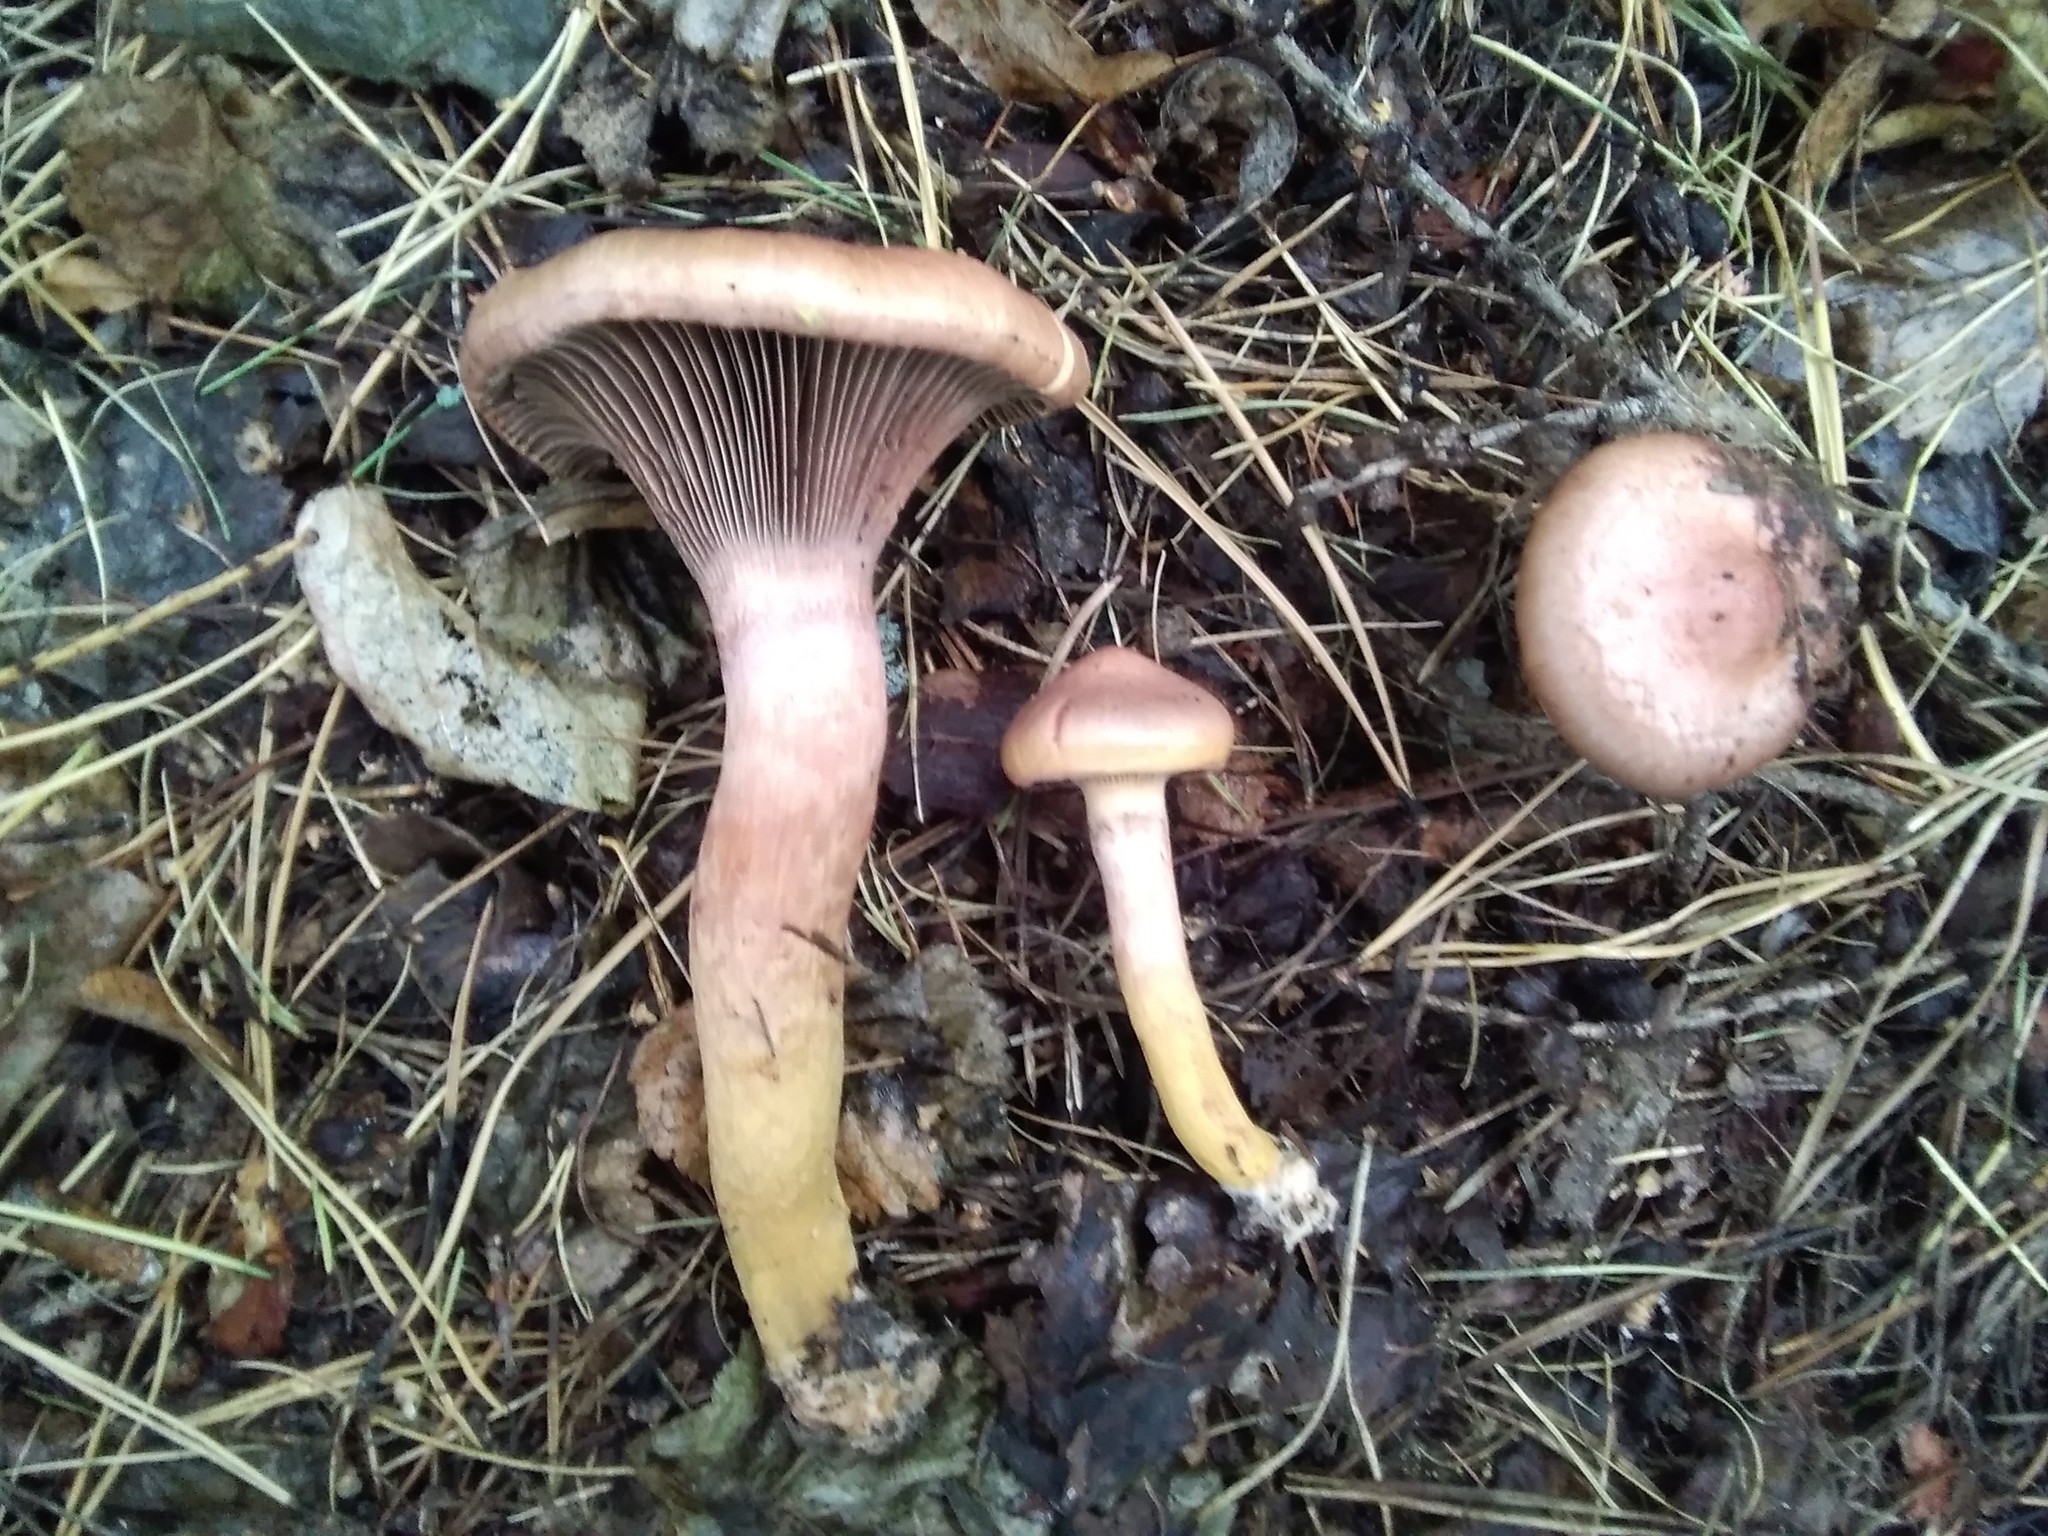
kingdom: Fungi
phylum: Basidiomycota
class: Agaricomycetes
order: Boletales
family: Gomphidiaceae
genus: Chroogomphus
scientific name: Chroogomphus rutilus
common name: Copper spike
